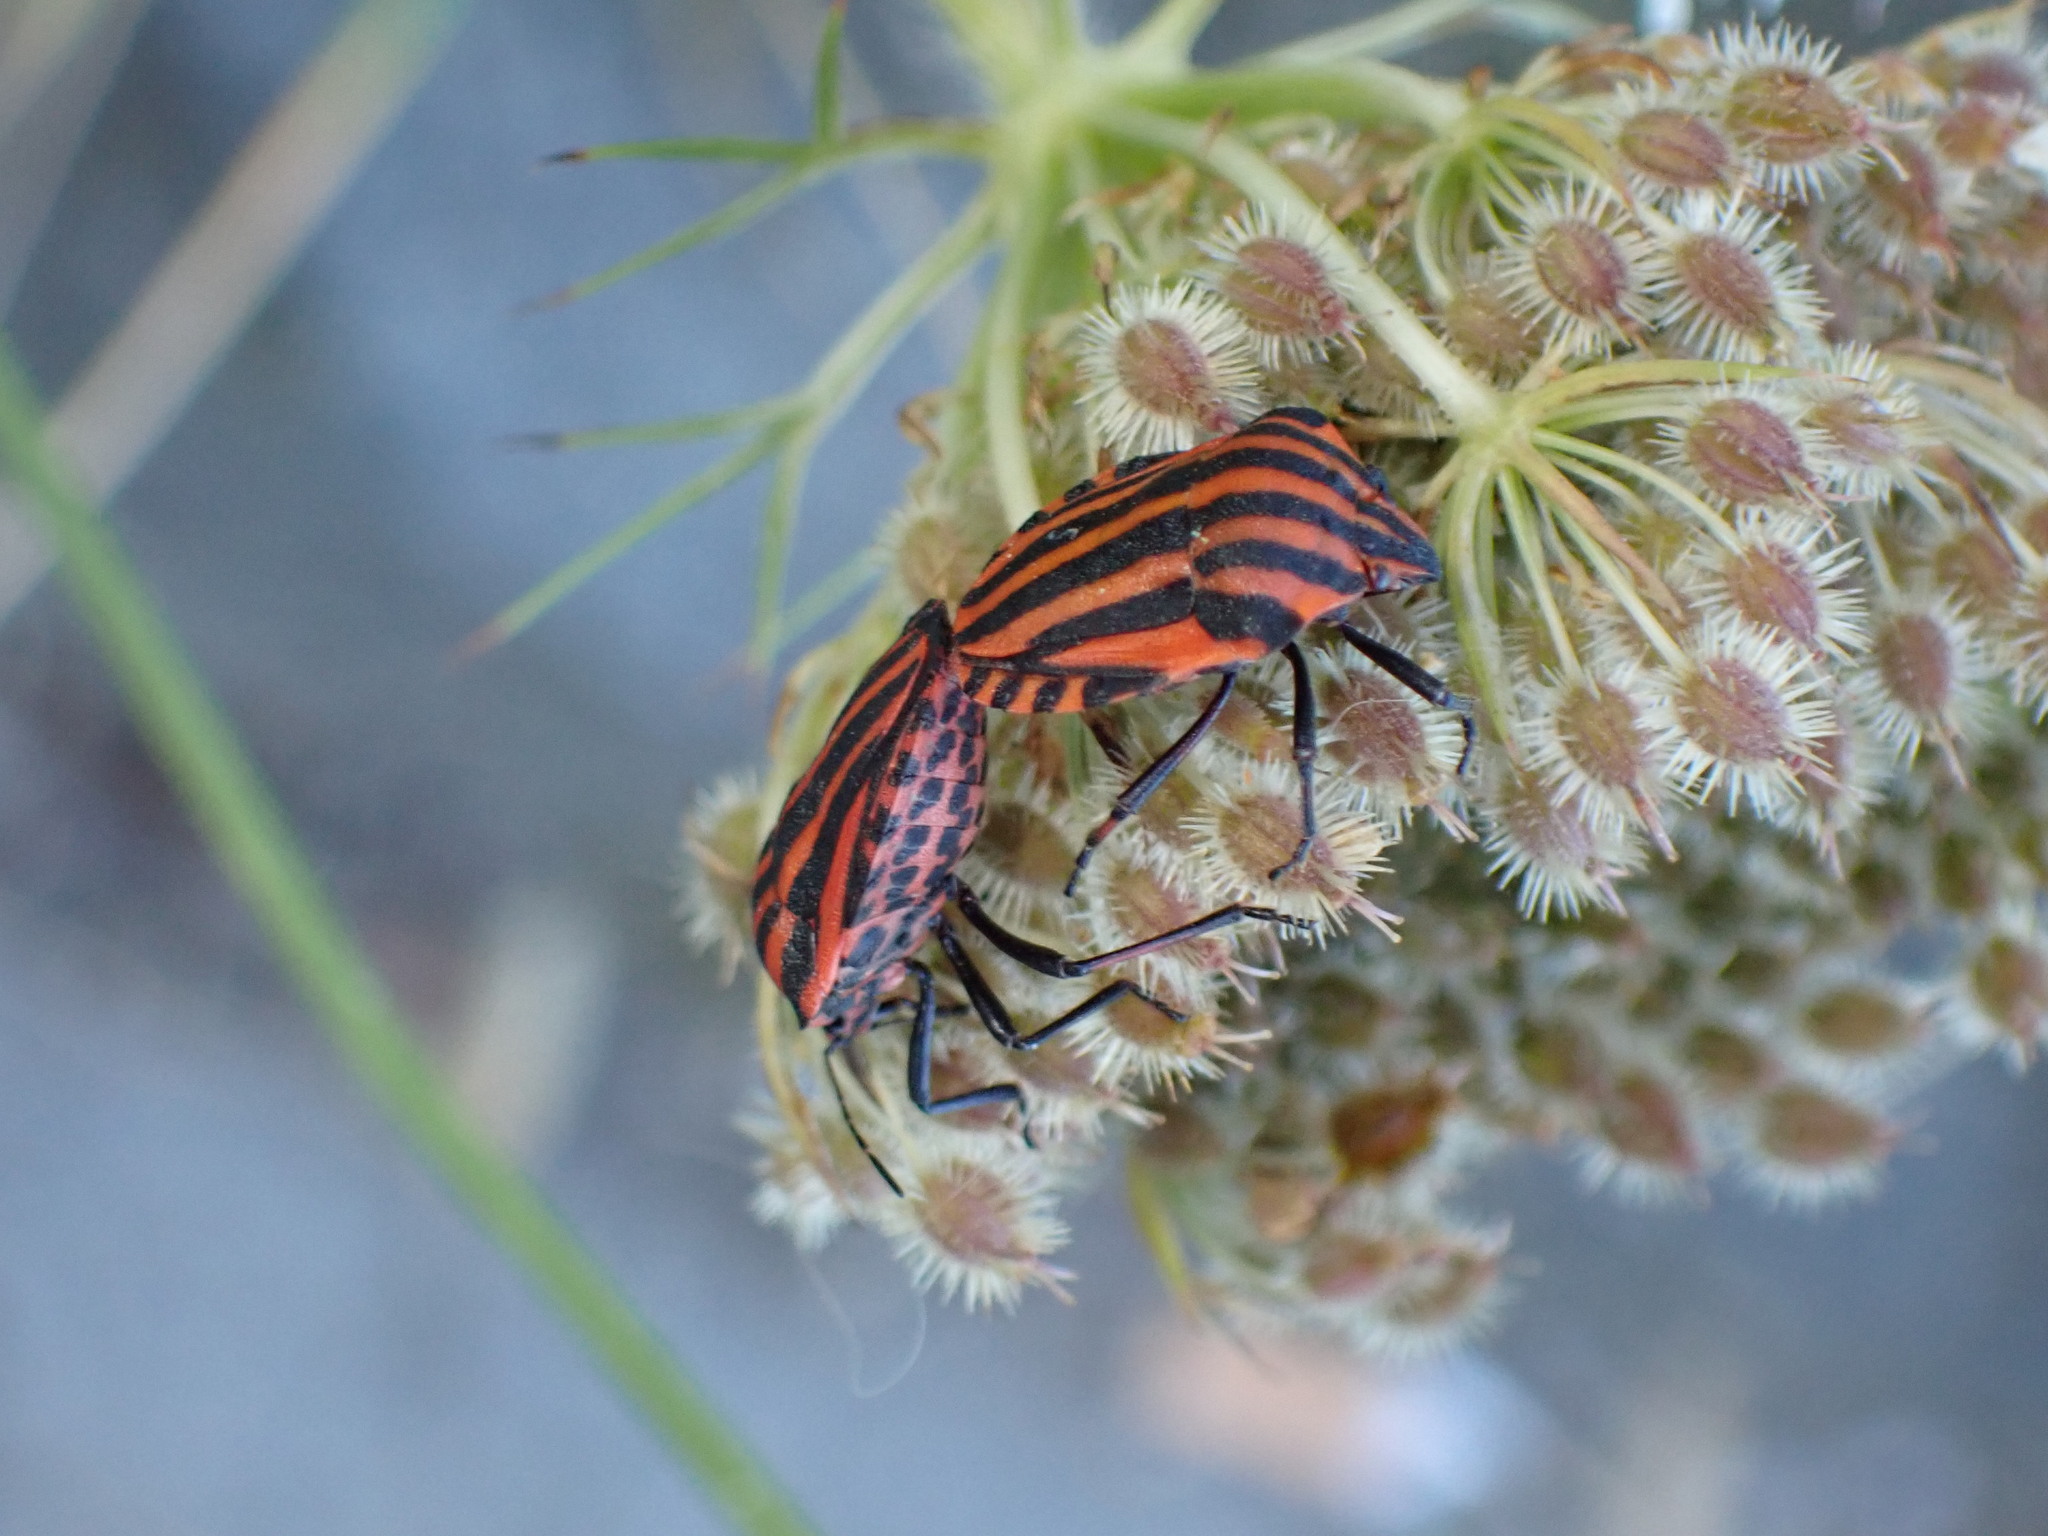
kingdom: Animalia
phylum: Arthropoda
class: Insecta
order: Hemiptera
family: Pentatomidae
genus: Graphosoma
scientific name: Graphosoma italicum
